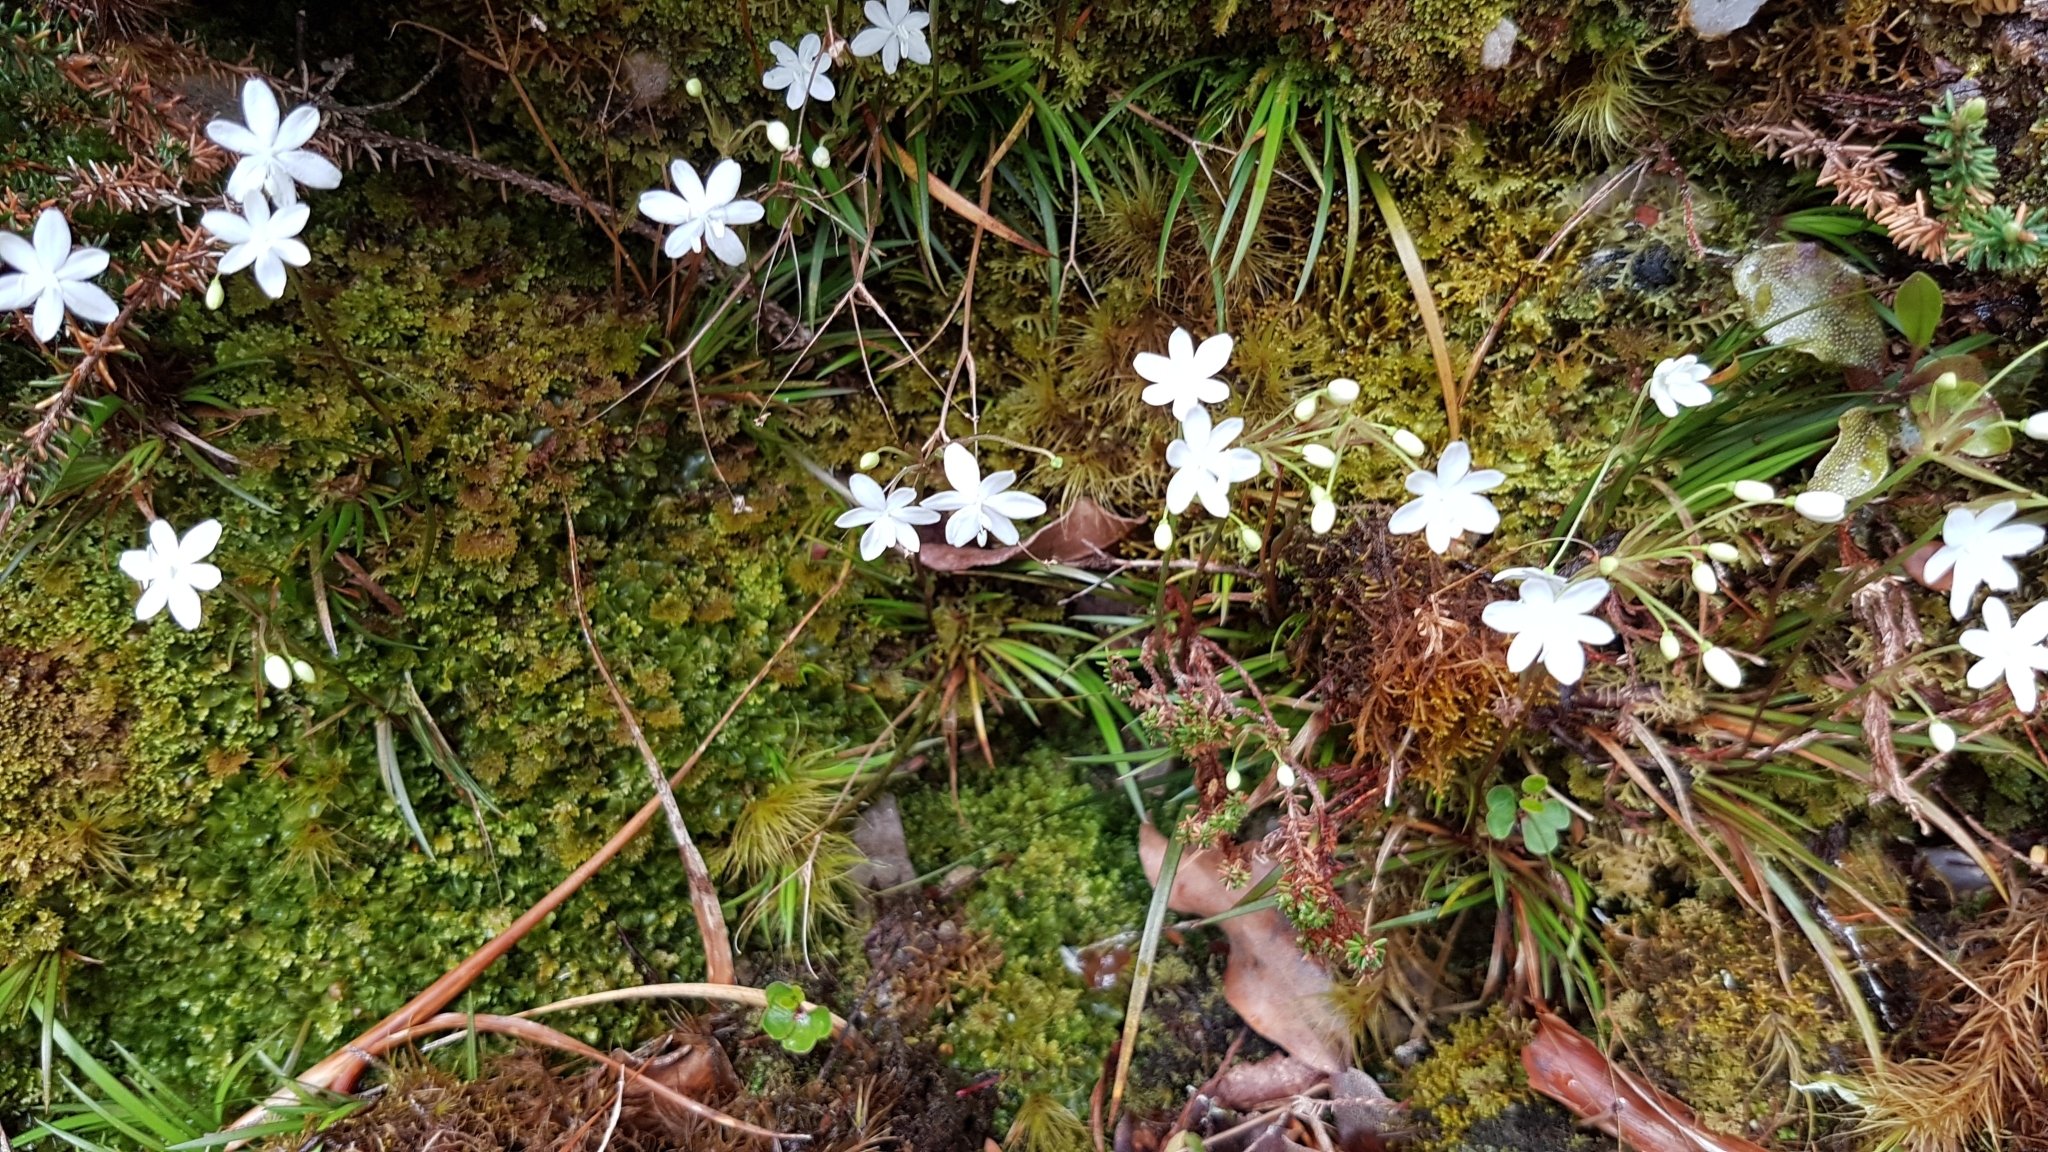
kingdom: Plantae
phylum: Tracheophyta
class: Liliopsida
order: Asparagales
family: Iridaceae
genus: Libertia
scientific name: Libertia micrantha
